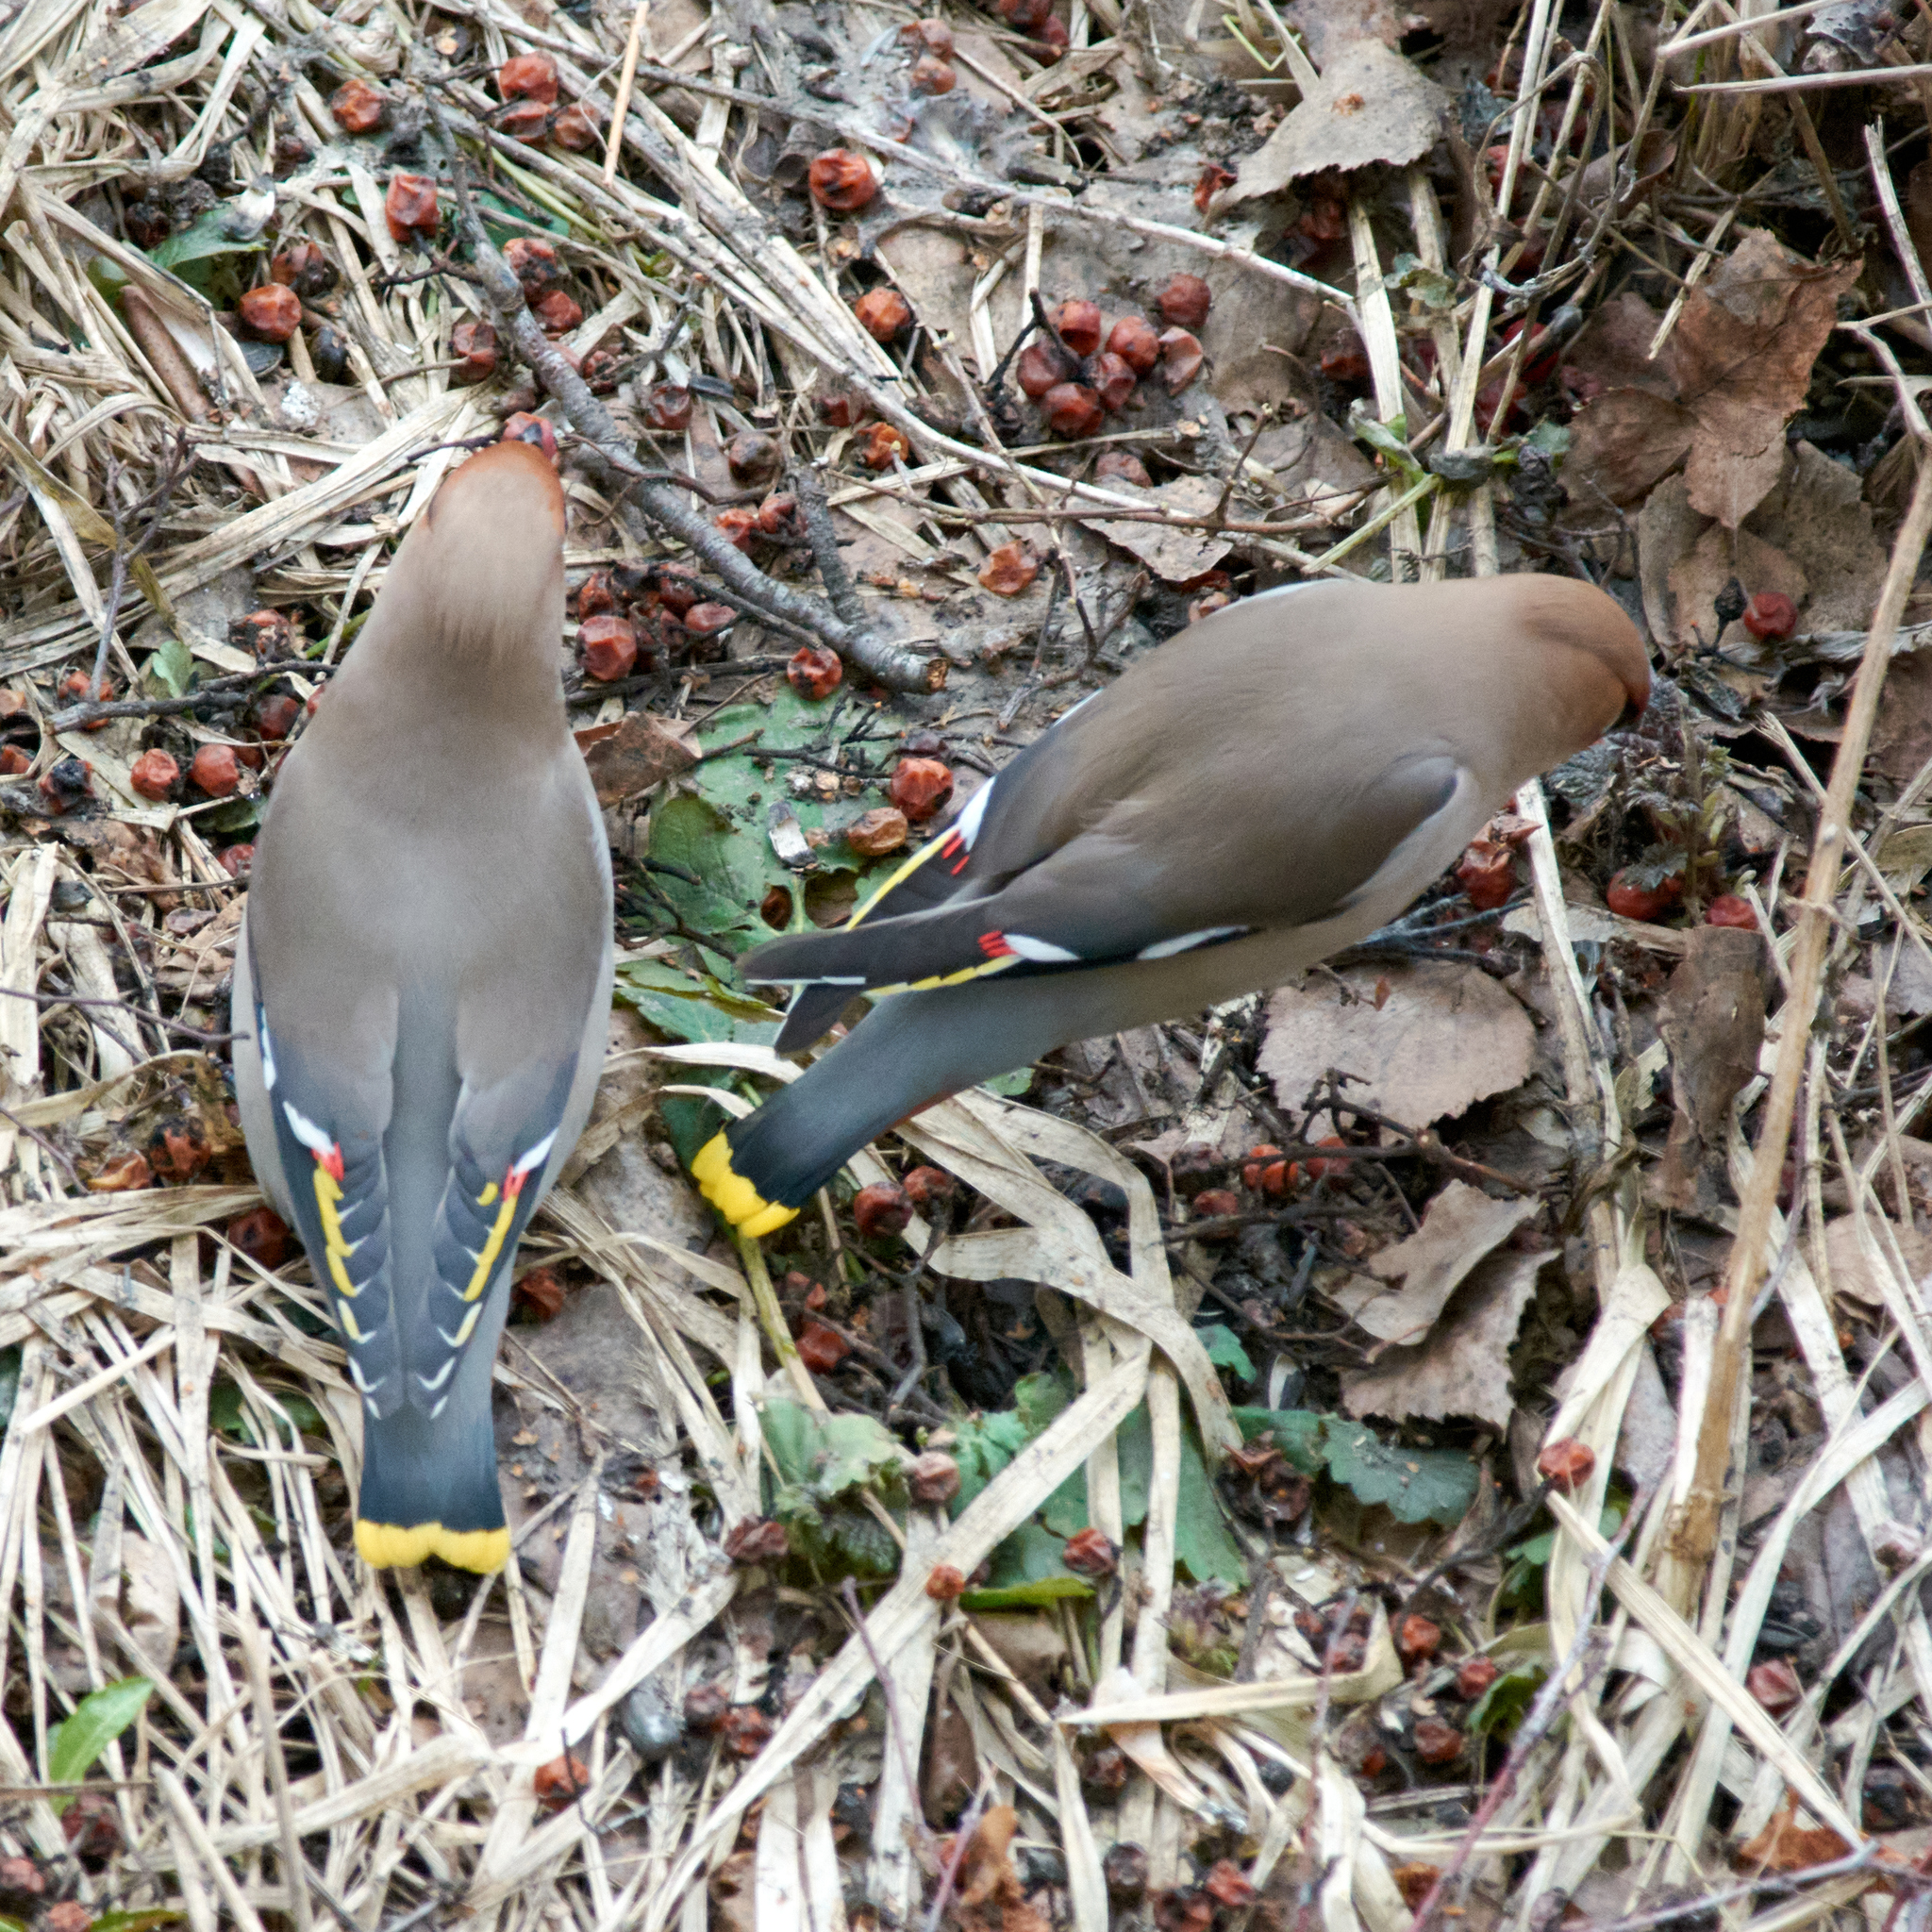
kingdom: Animalia
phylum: Chordata
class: Aves
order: Passeriformes
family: Bombycillidae
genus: Bombycilla
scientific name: Bombycilla garrulus
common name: Bohemian waxwing
